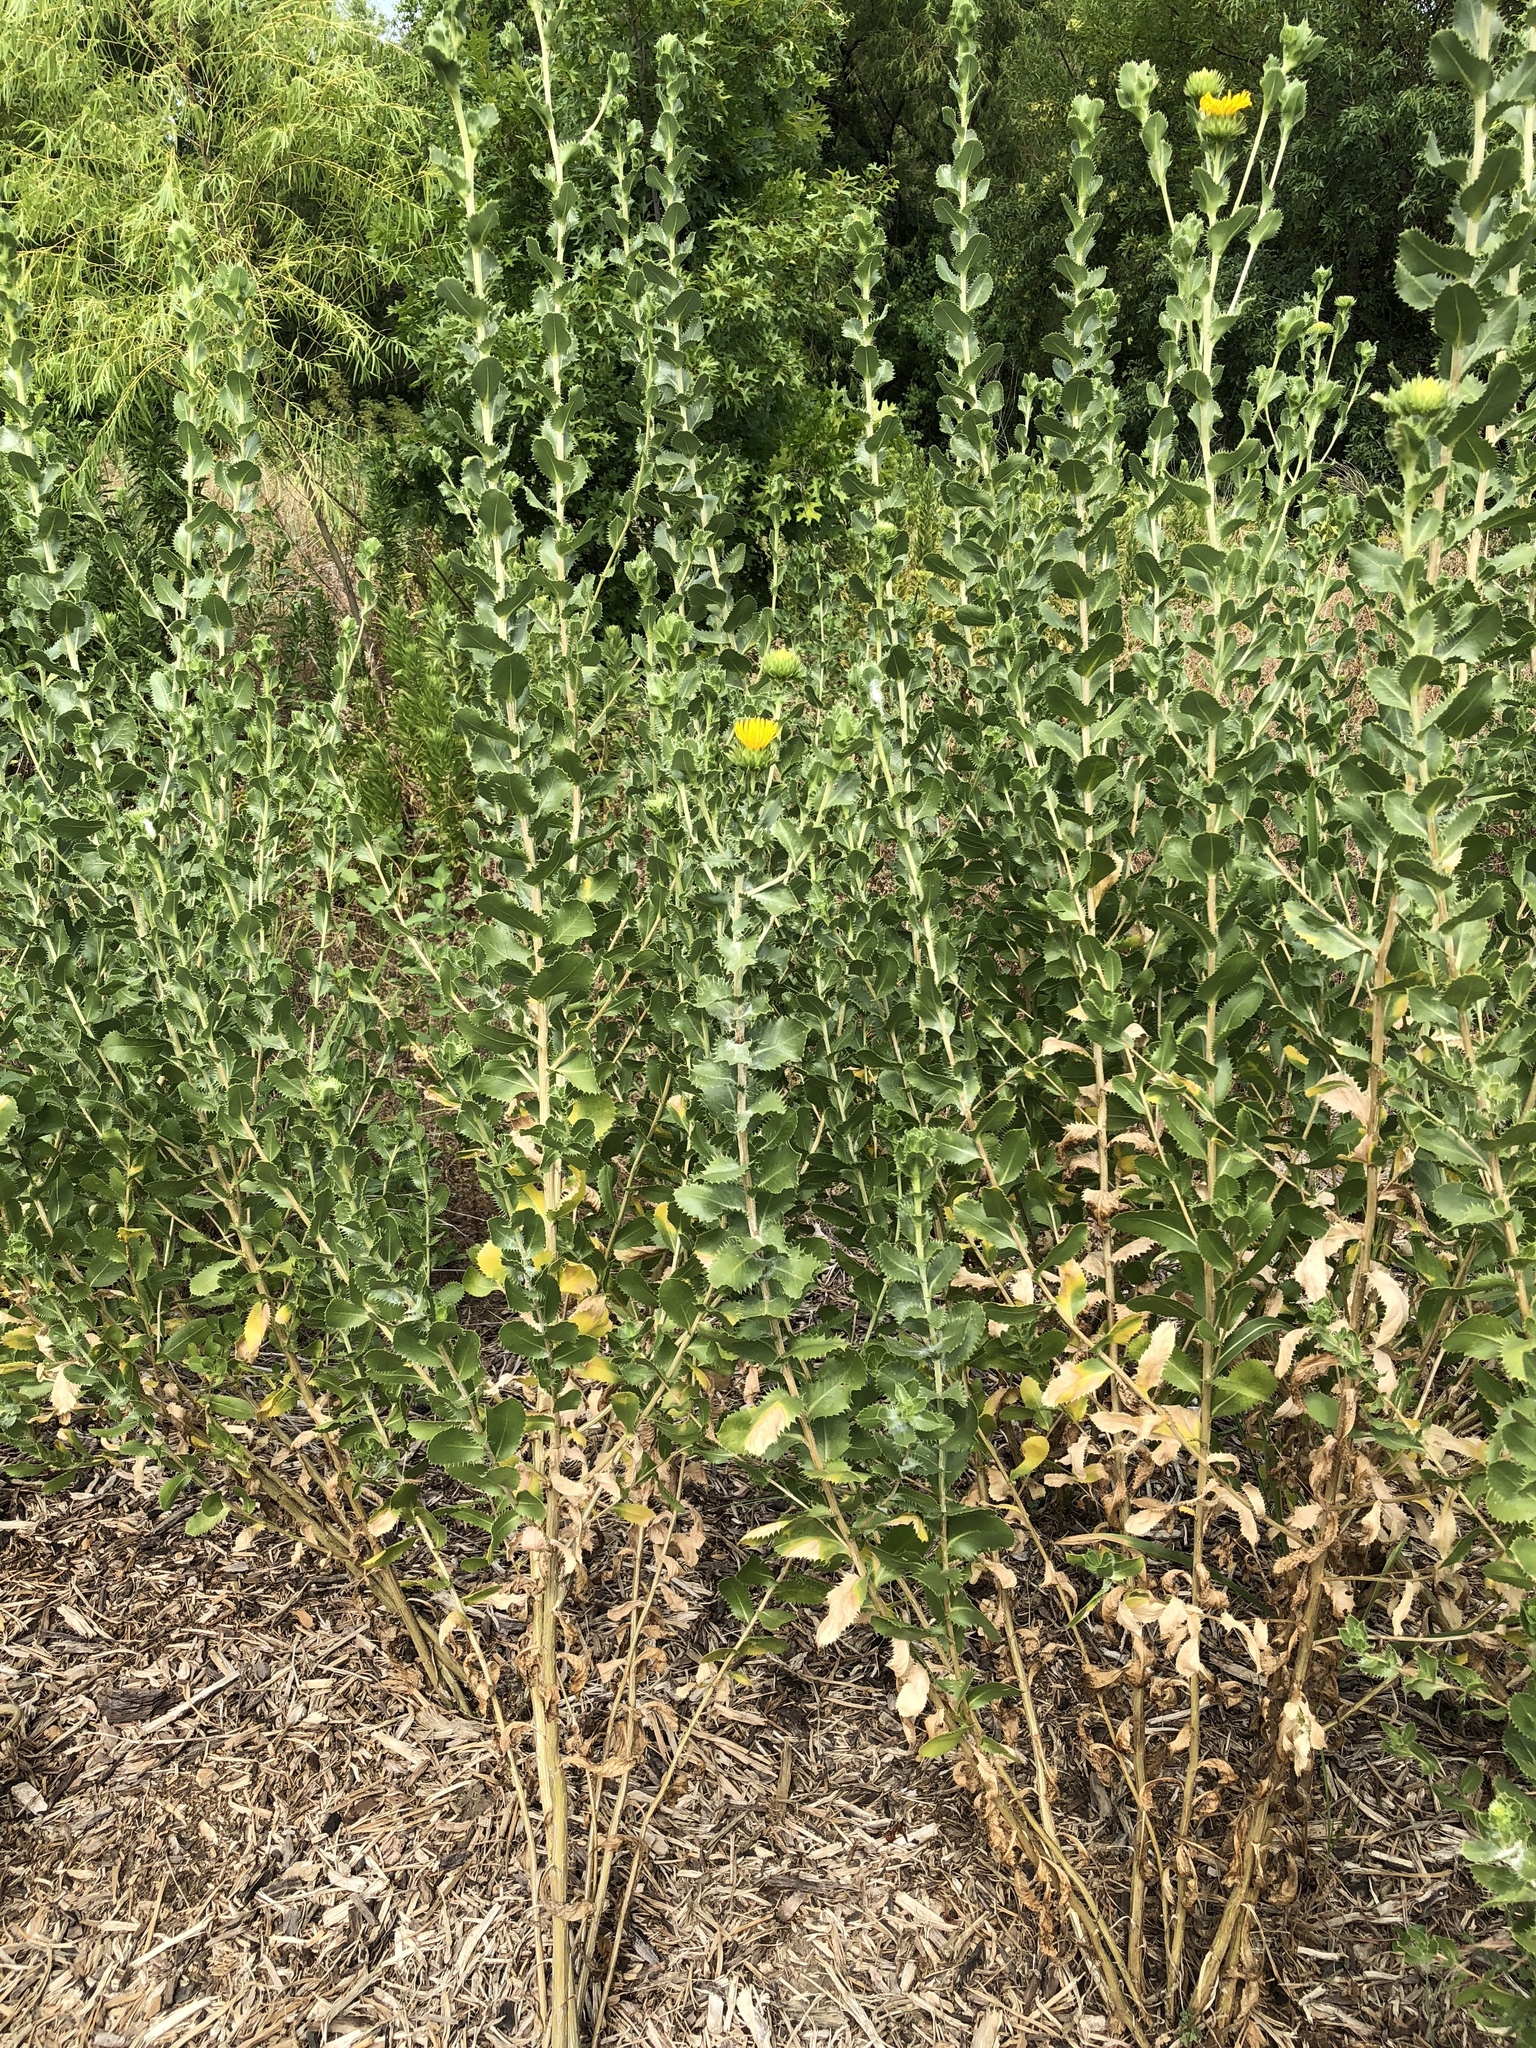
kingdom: Plantae
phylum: Tracheophyta
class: Magnoliopsida
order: Asterales
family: Asteraceae
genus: Grindelia
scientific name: Grindelia ciliata
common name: Goldenweed
